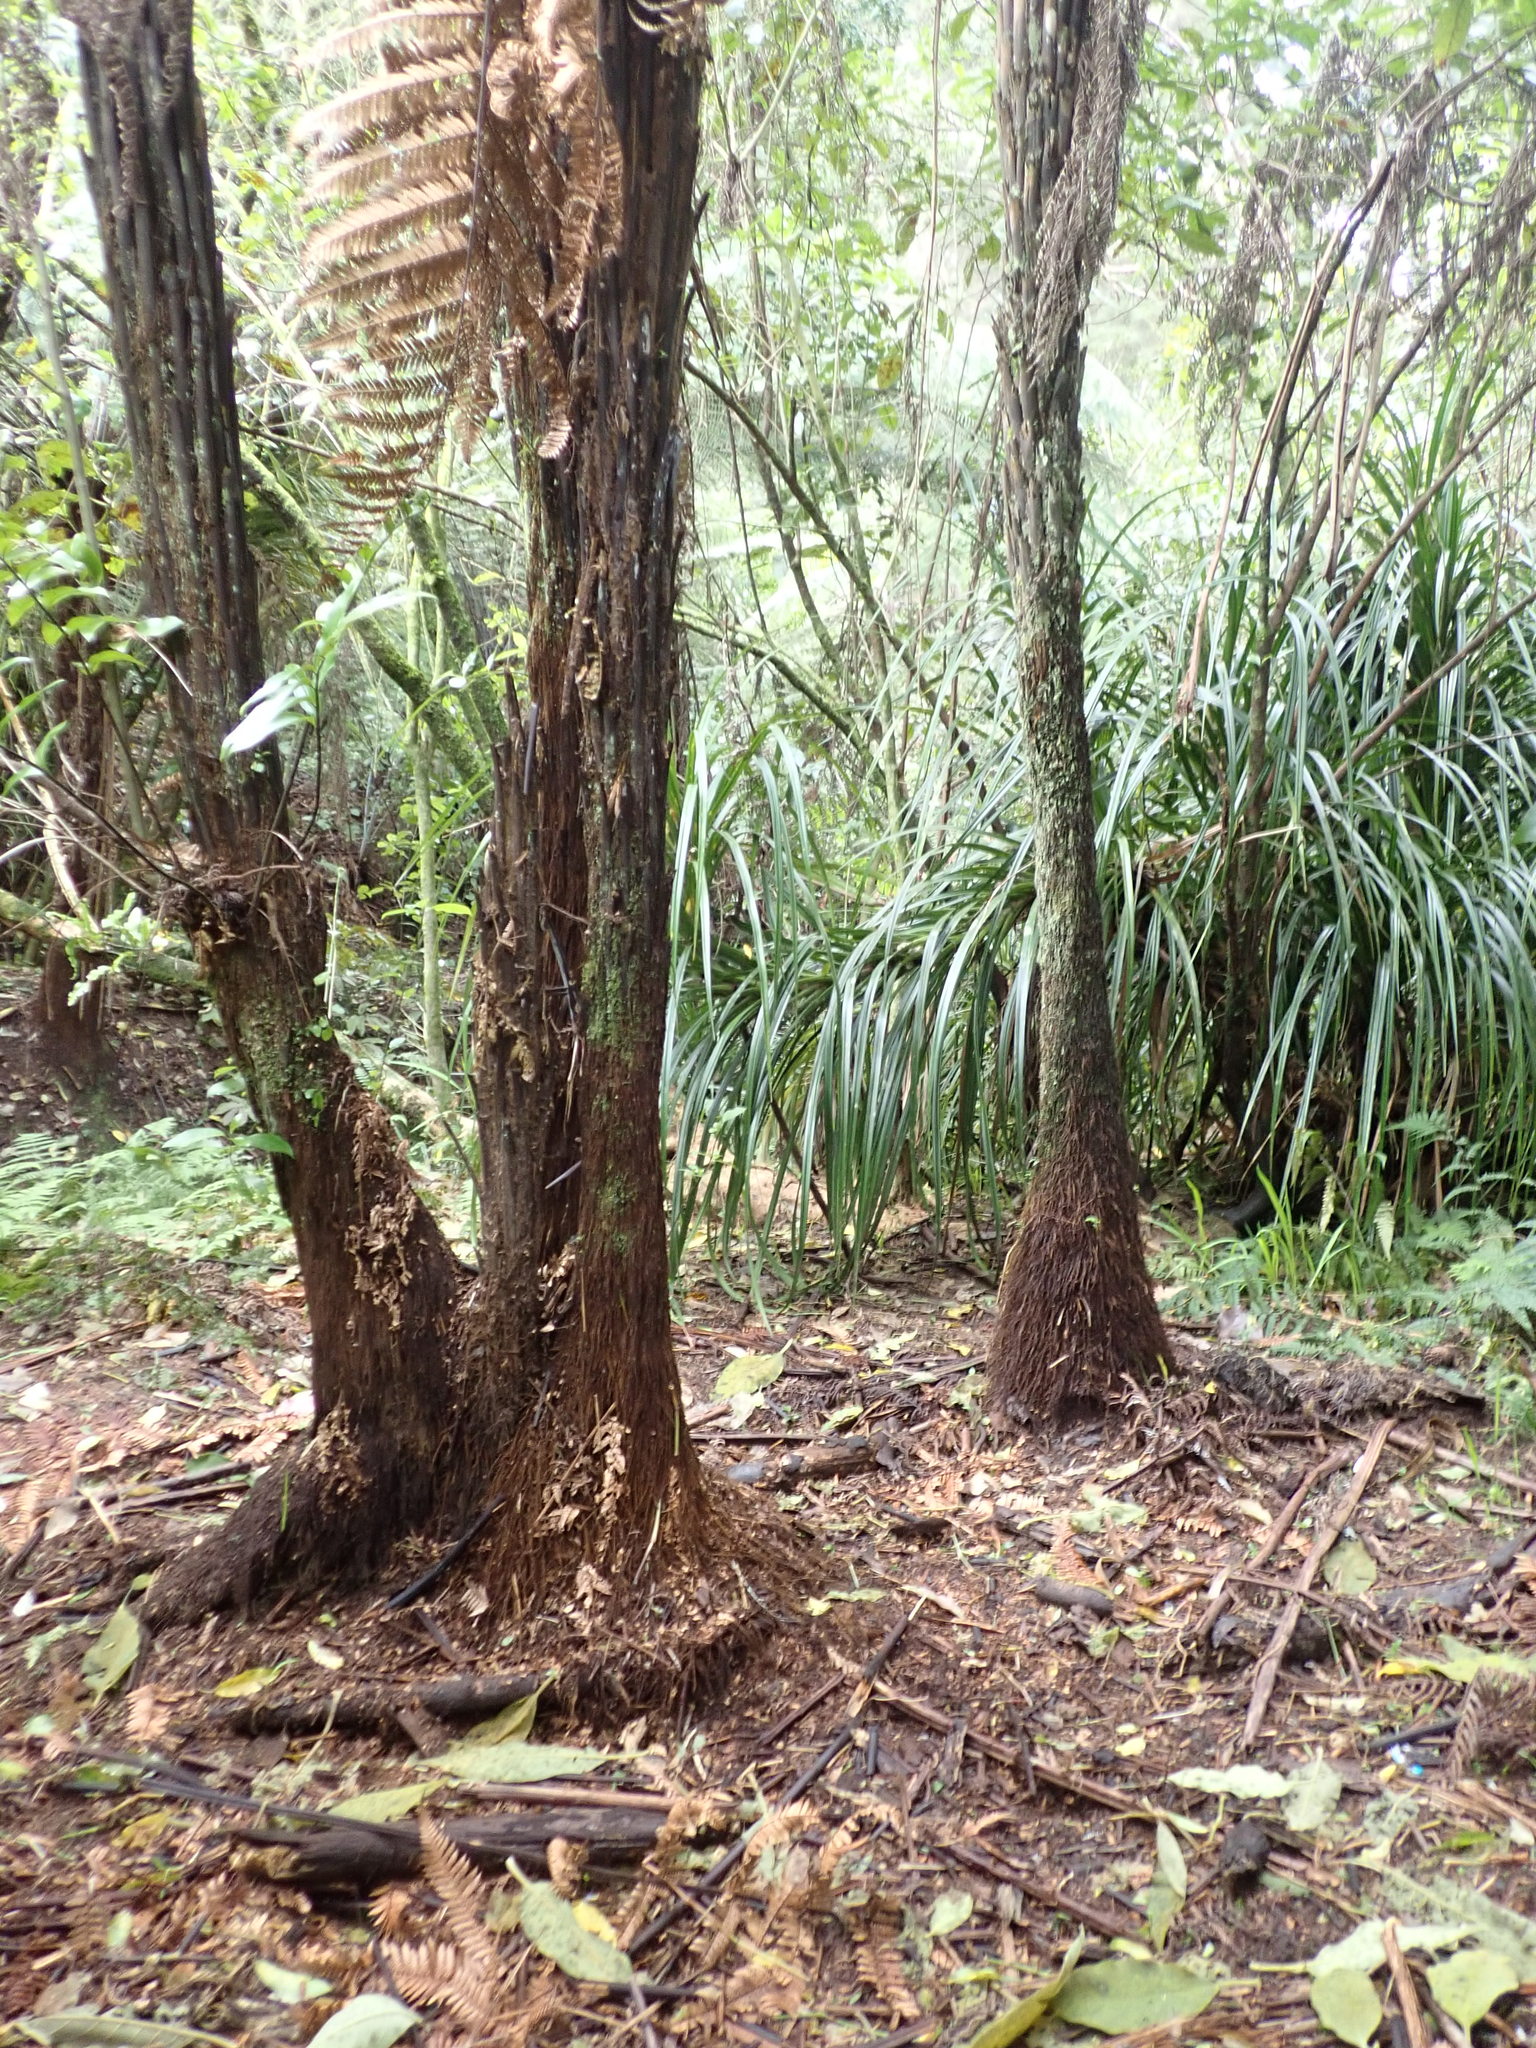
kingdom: Plantae
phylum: Tracheophyta
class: Polypodiopsida
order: Cyatheales
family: Dicksoniaceae
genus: Dicksonia
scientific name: Dicksonia squarrosa
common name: Hard treefern
